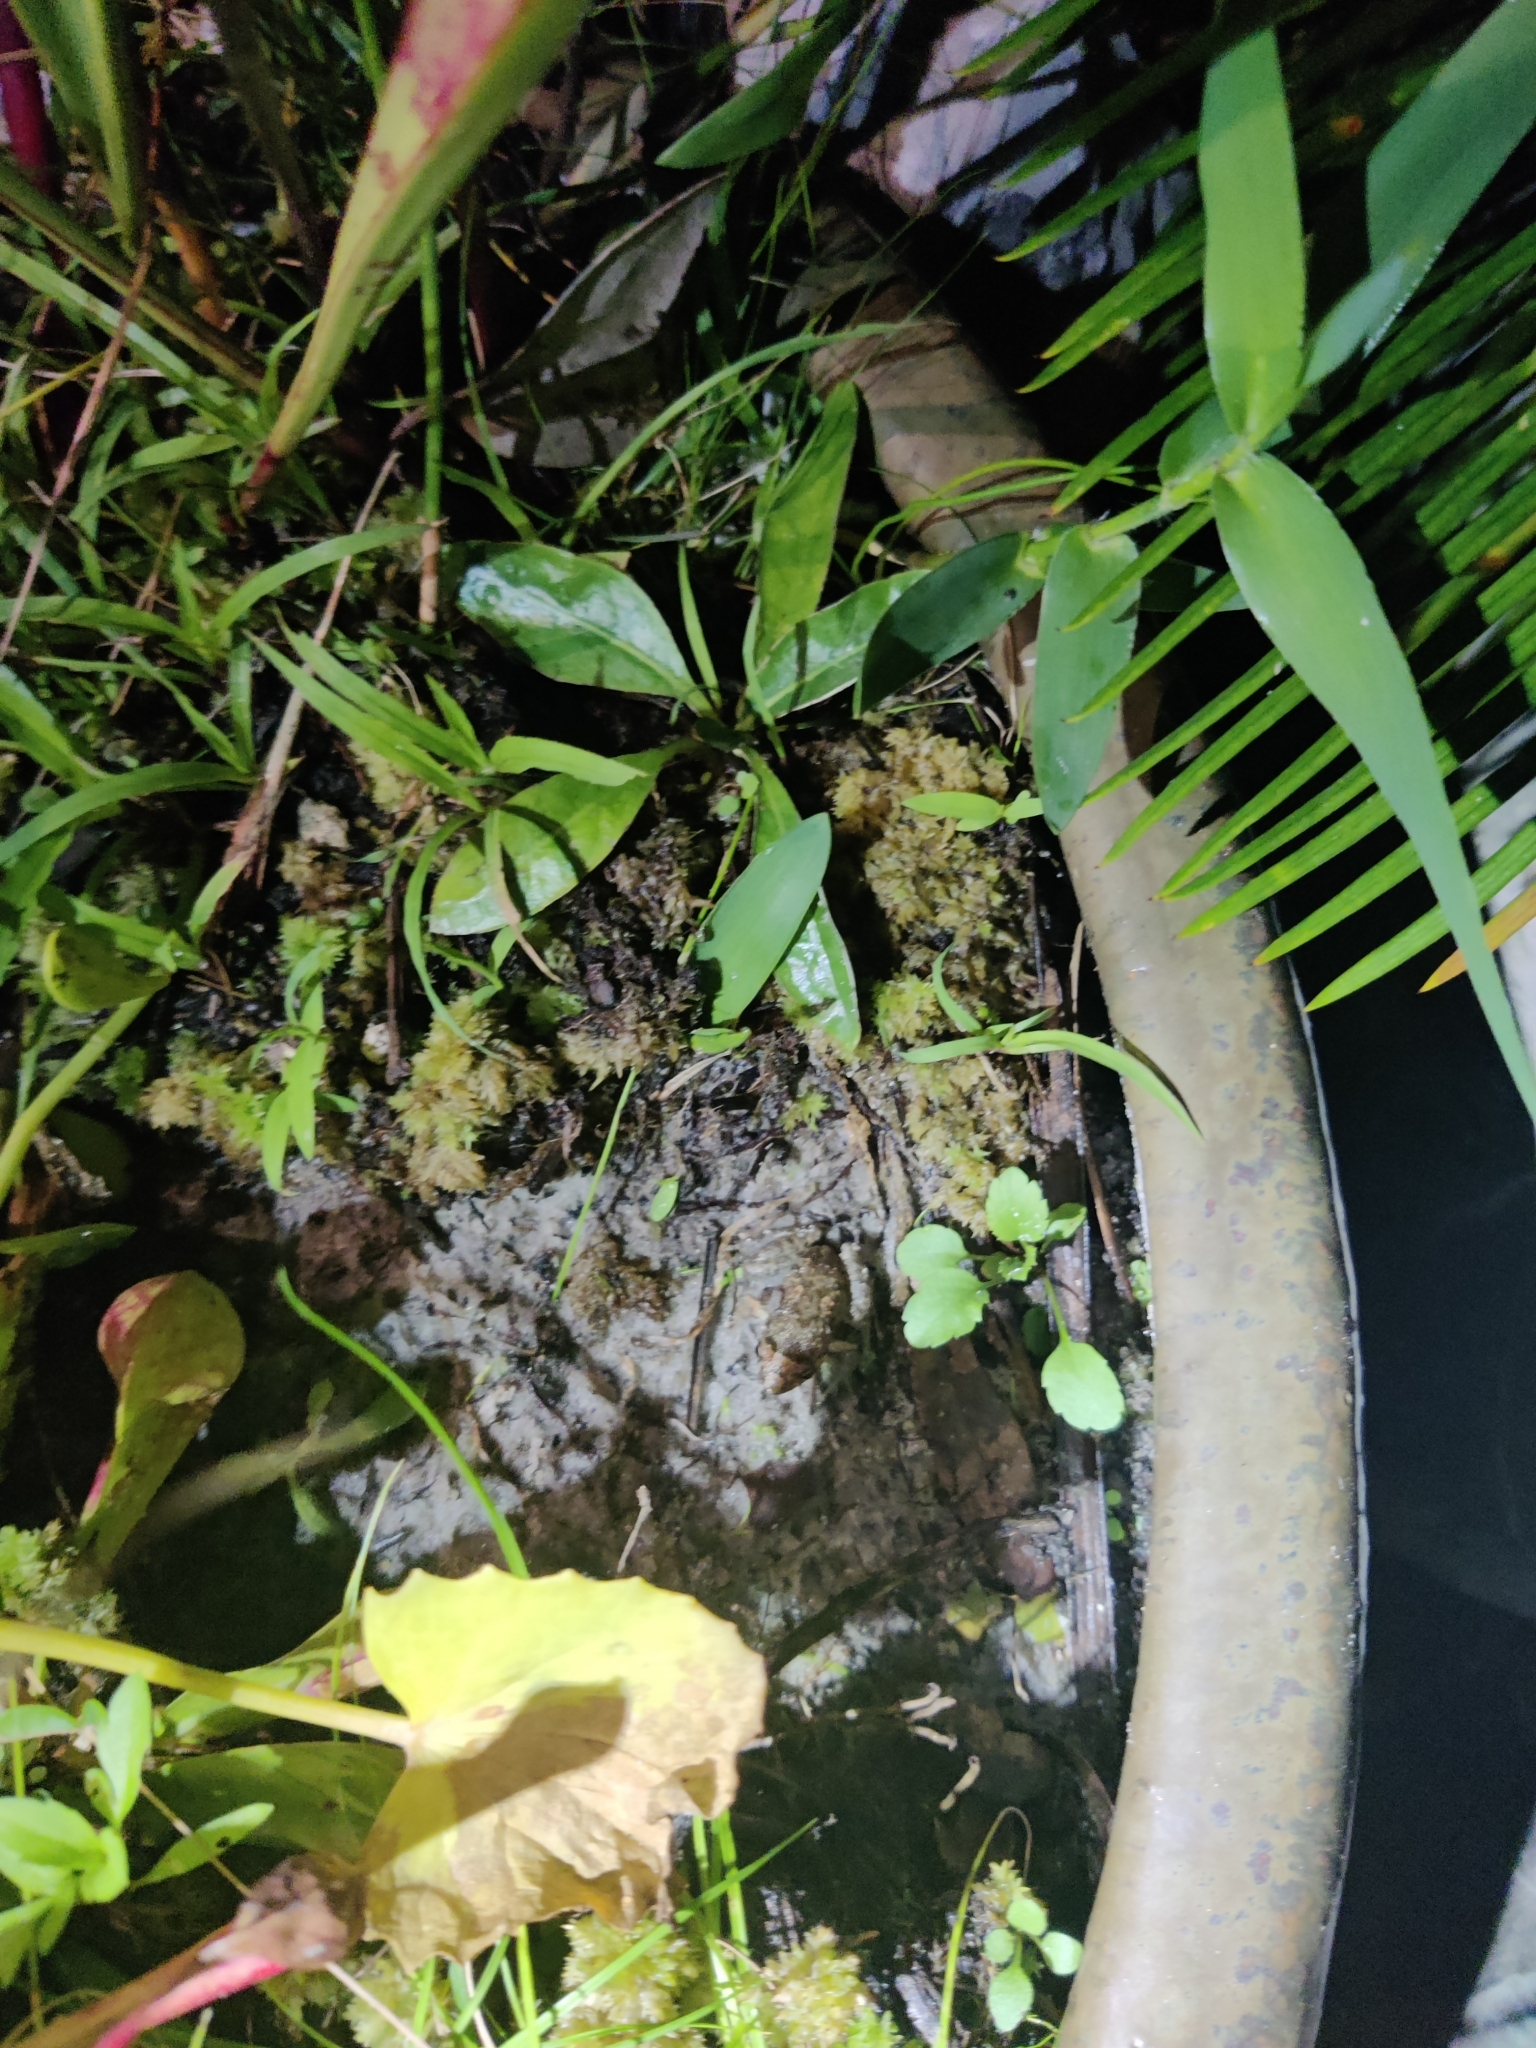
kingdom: Animalia
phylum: Chordata
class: Amphibia
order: Anura
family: Eleutherodactylidae
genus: Eleutherodactylus
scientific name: Eleutherodactylus planirostris
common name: Greenhouse frog
